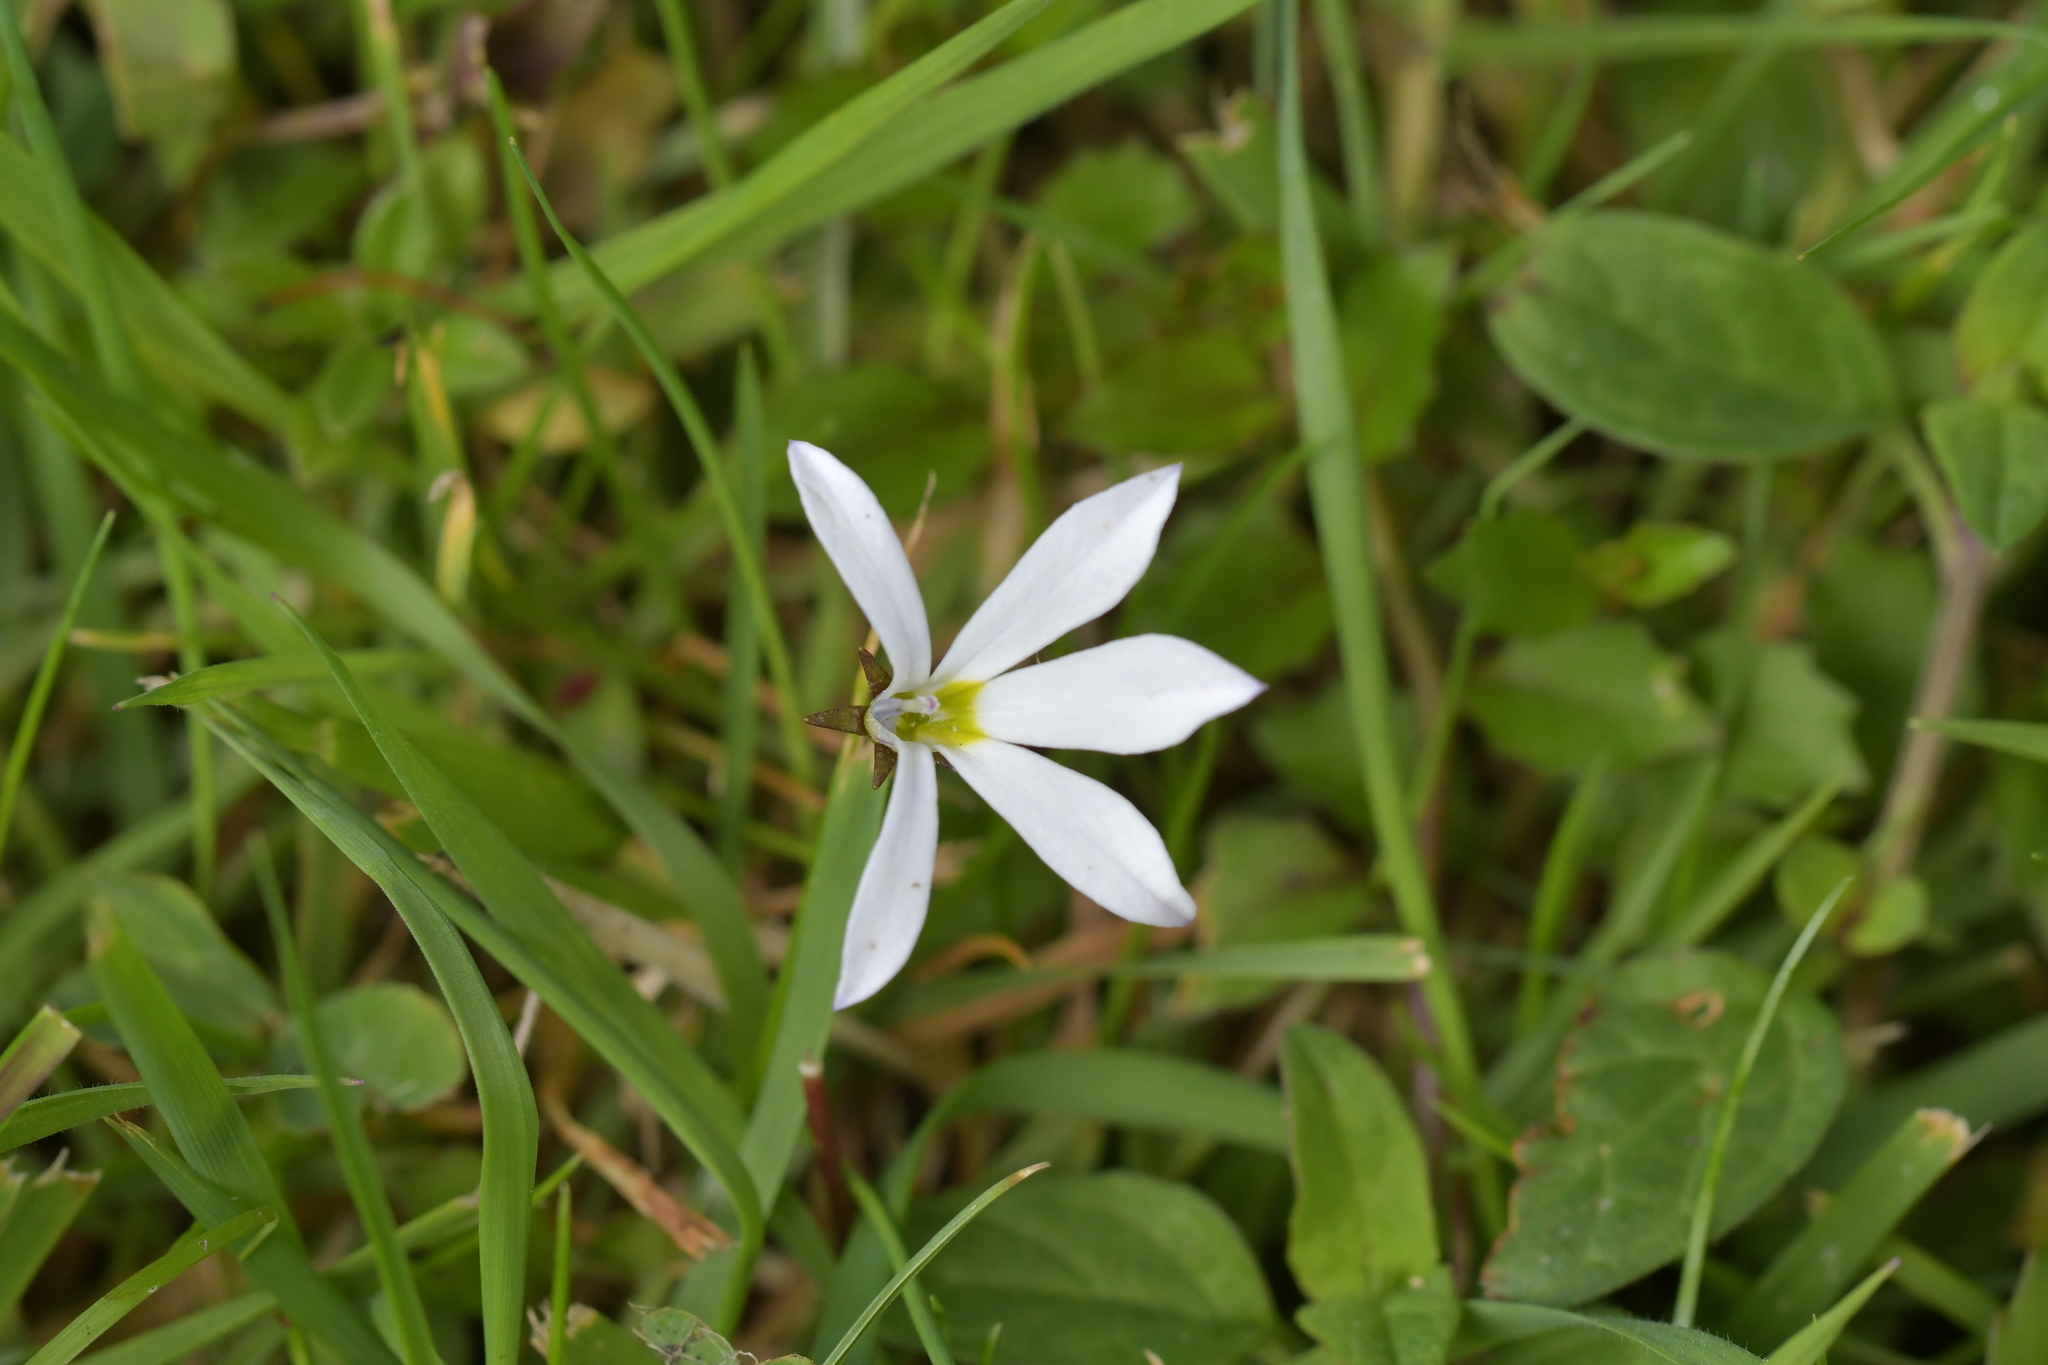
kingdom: Plantae
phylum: Tracheophyta
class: Magnoliopsida
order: Asterales
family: Campanulaceae
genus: Lobelia
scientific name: Lobelia angulata
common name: Lawn lobelia
